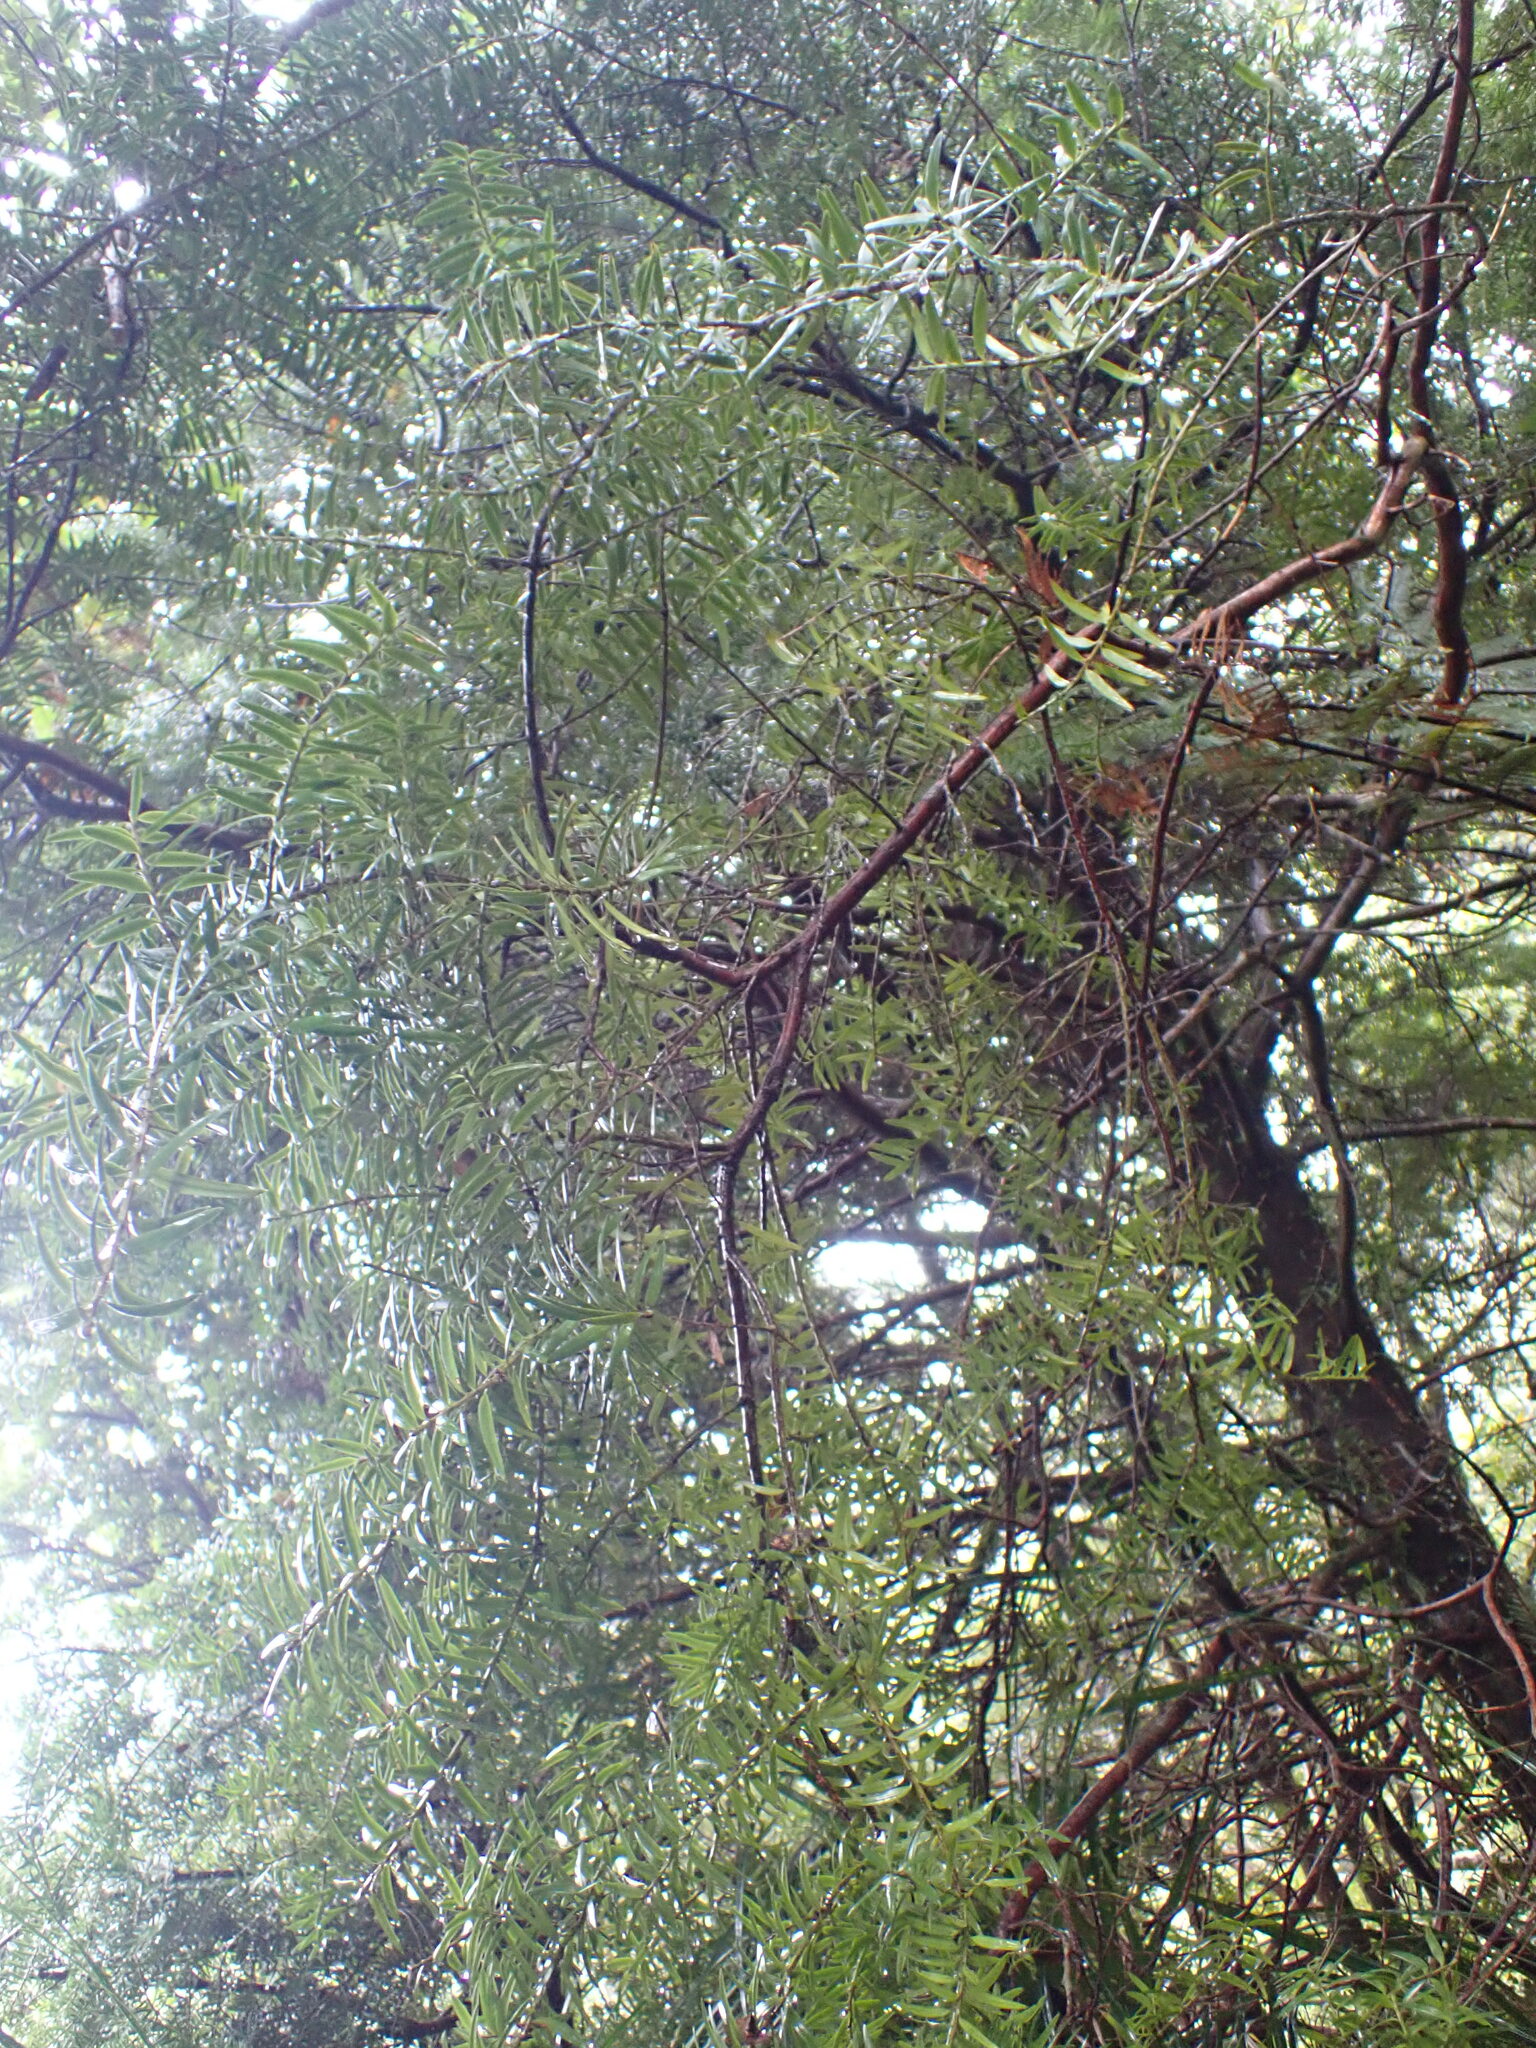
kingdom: Plantae
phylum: Tracheophyta
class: Pinopsida
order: Pinales
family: Podocarpaceae
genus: Podocarpus
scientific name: Podocarpus laetus
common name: Hall's totara
